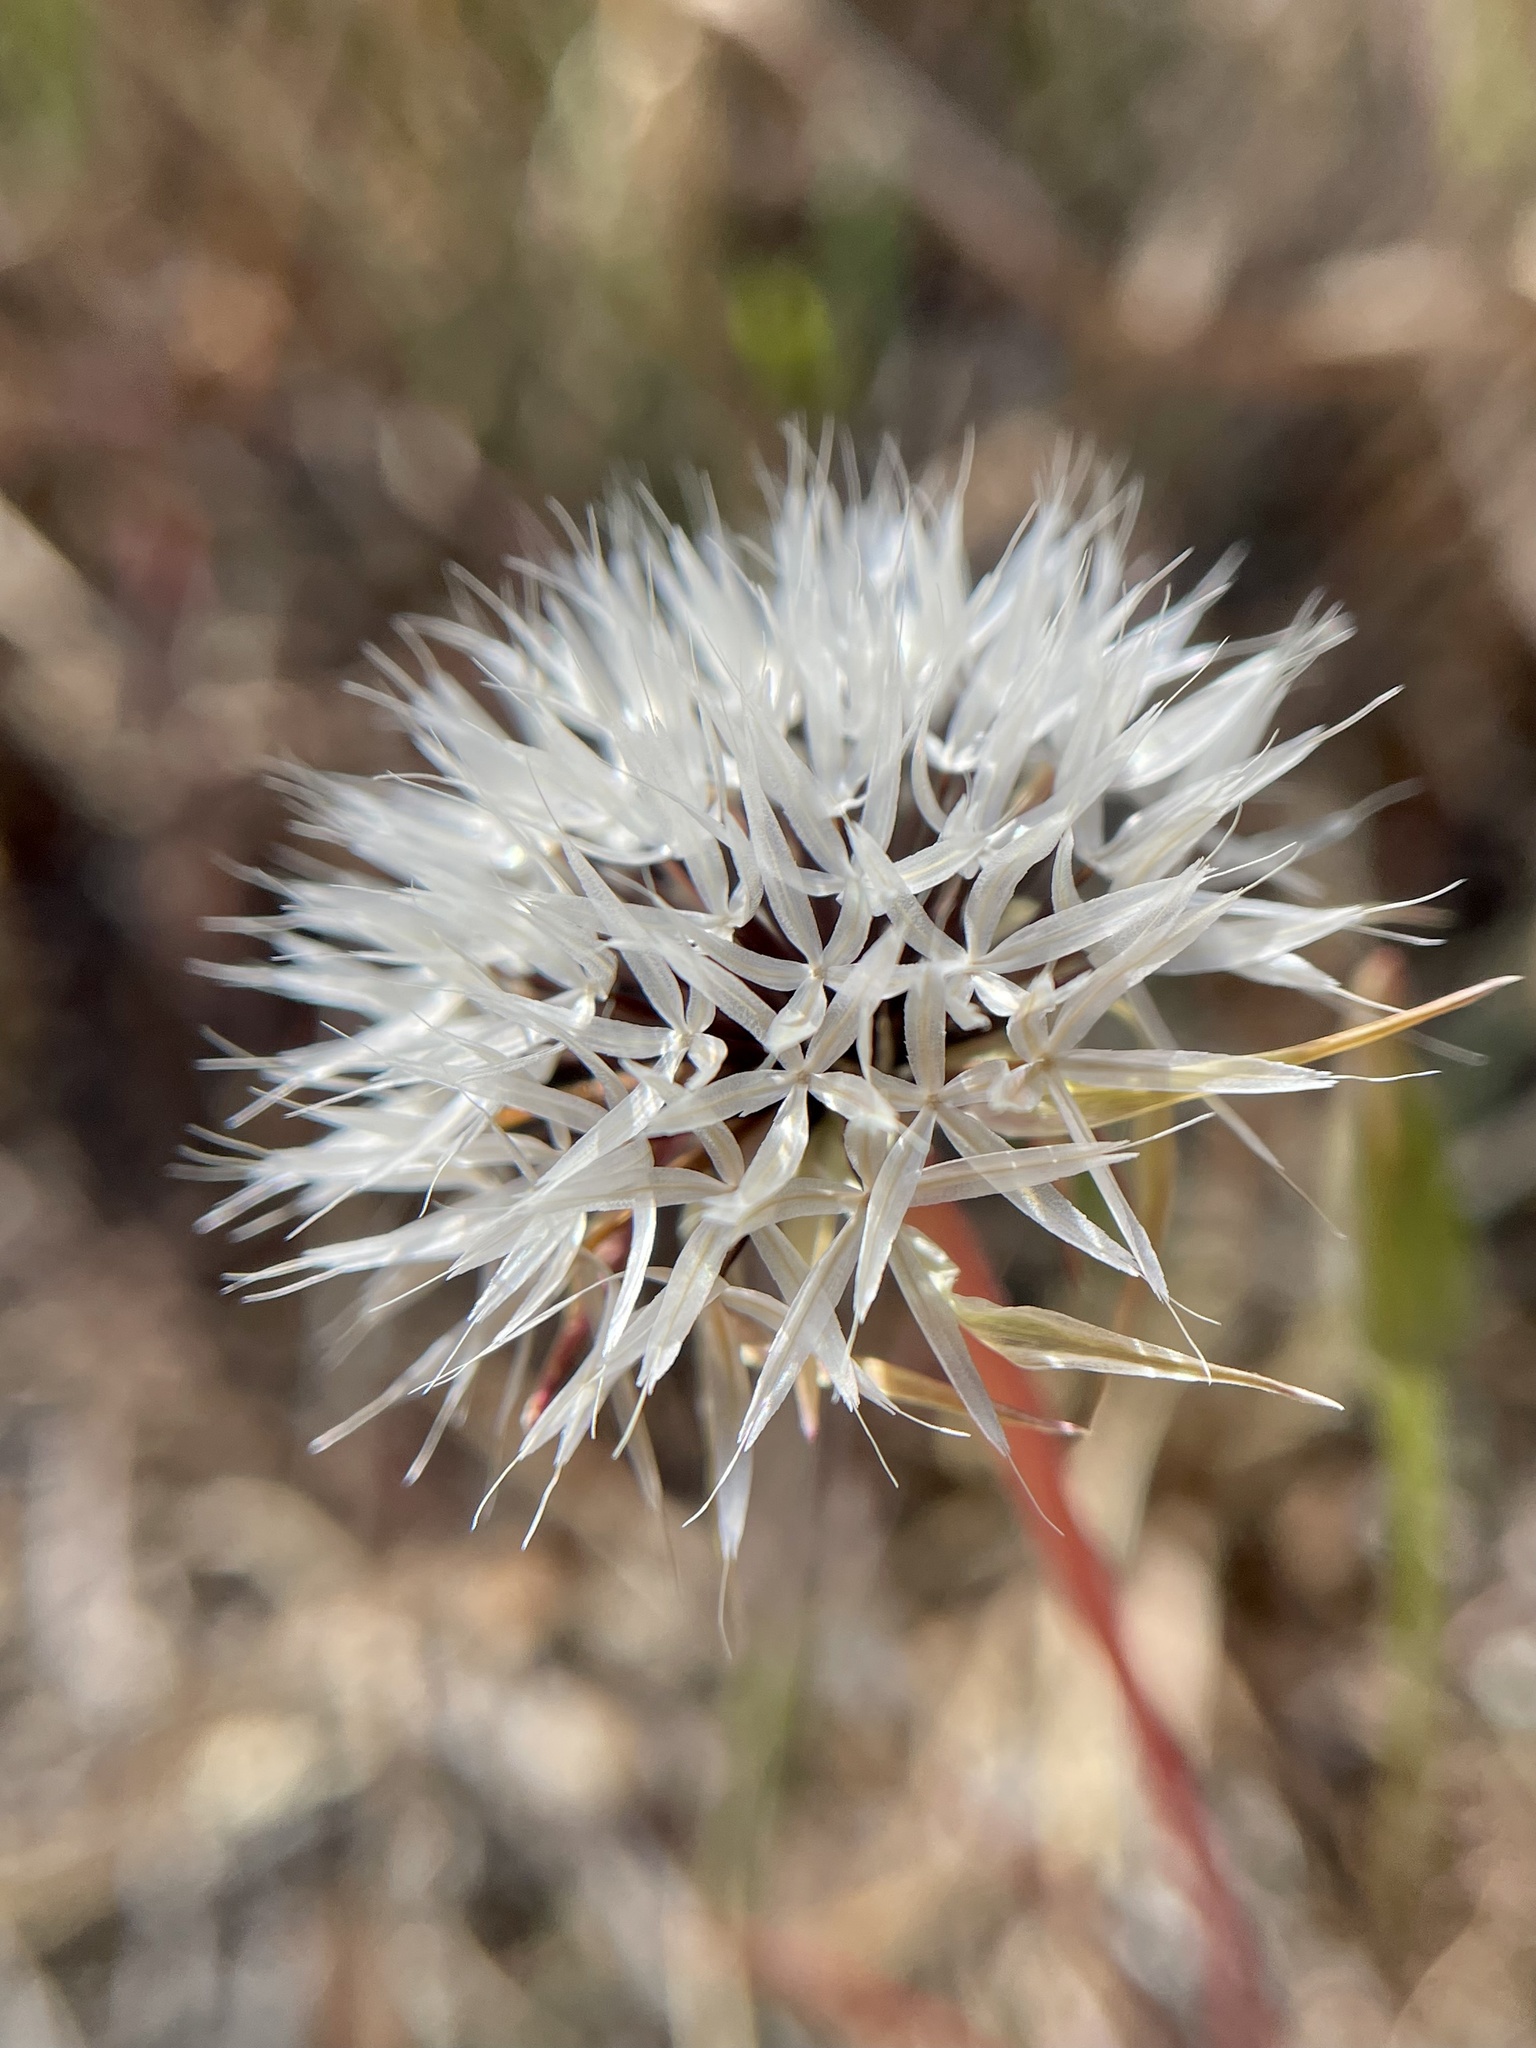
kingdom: Plantae
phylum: Tracheophyta
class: Magnoliopsida
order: Asterales
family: Asteraceae
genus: Microseris
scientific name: Microseris lindleyi
